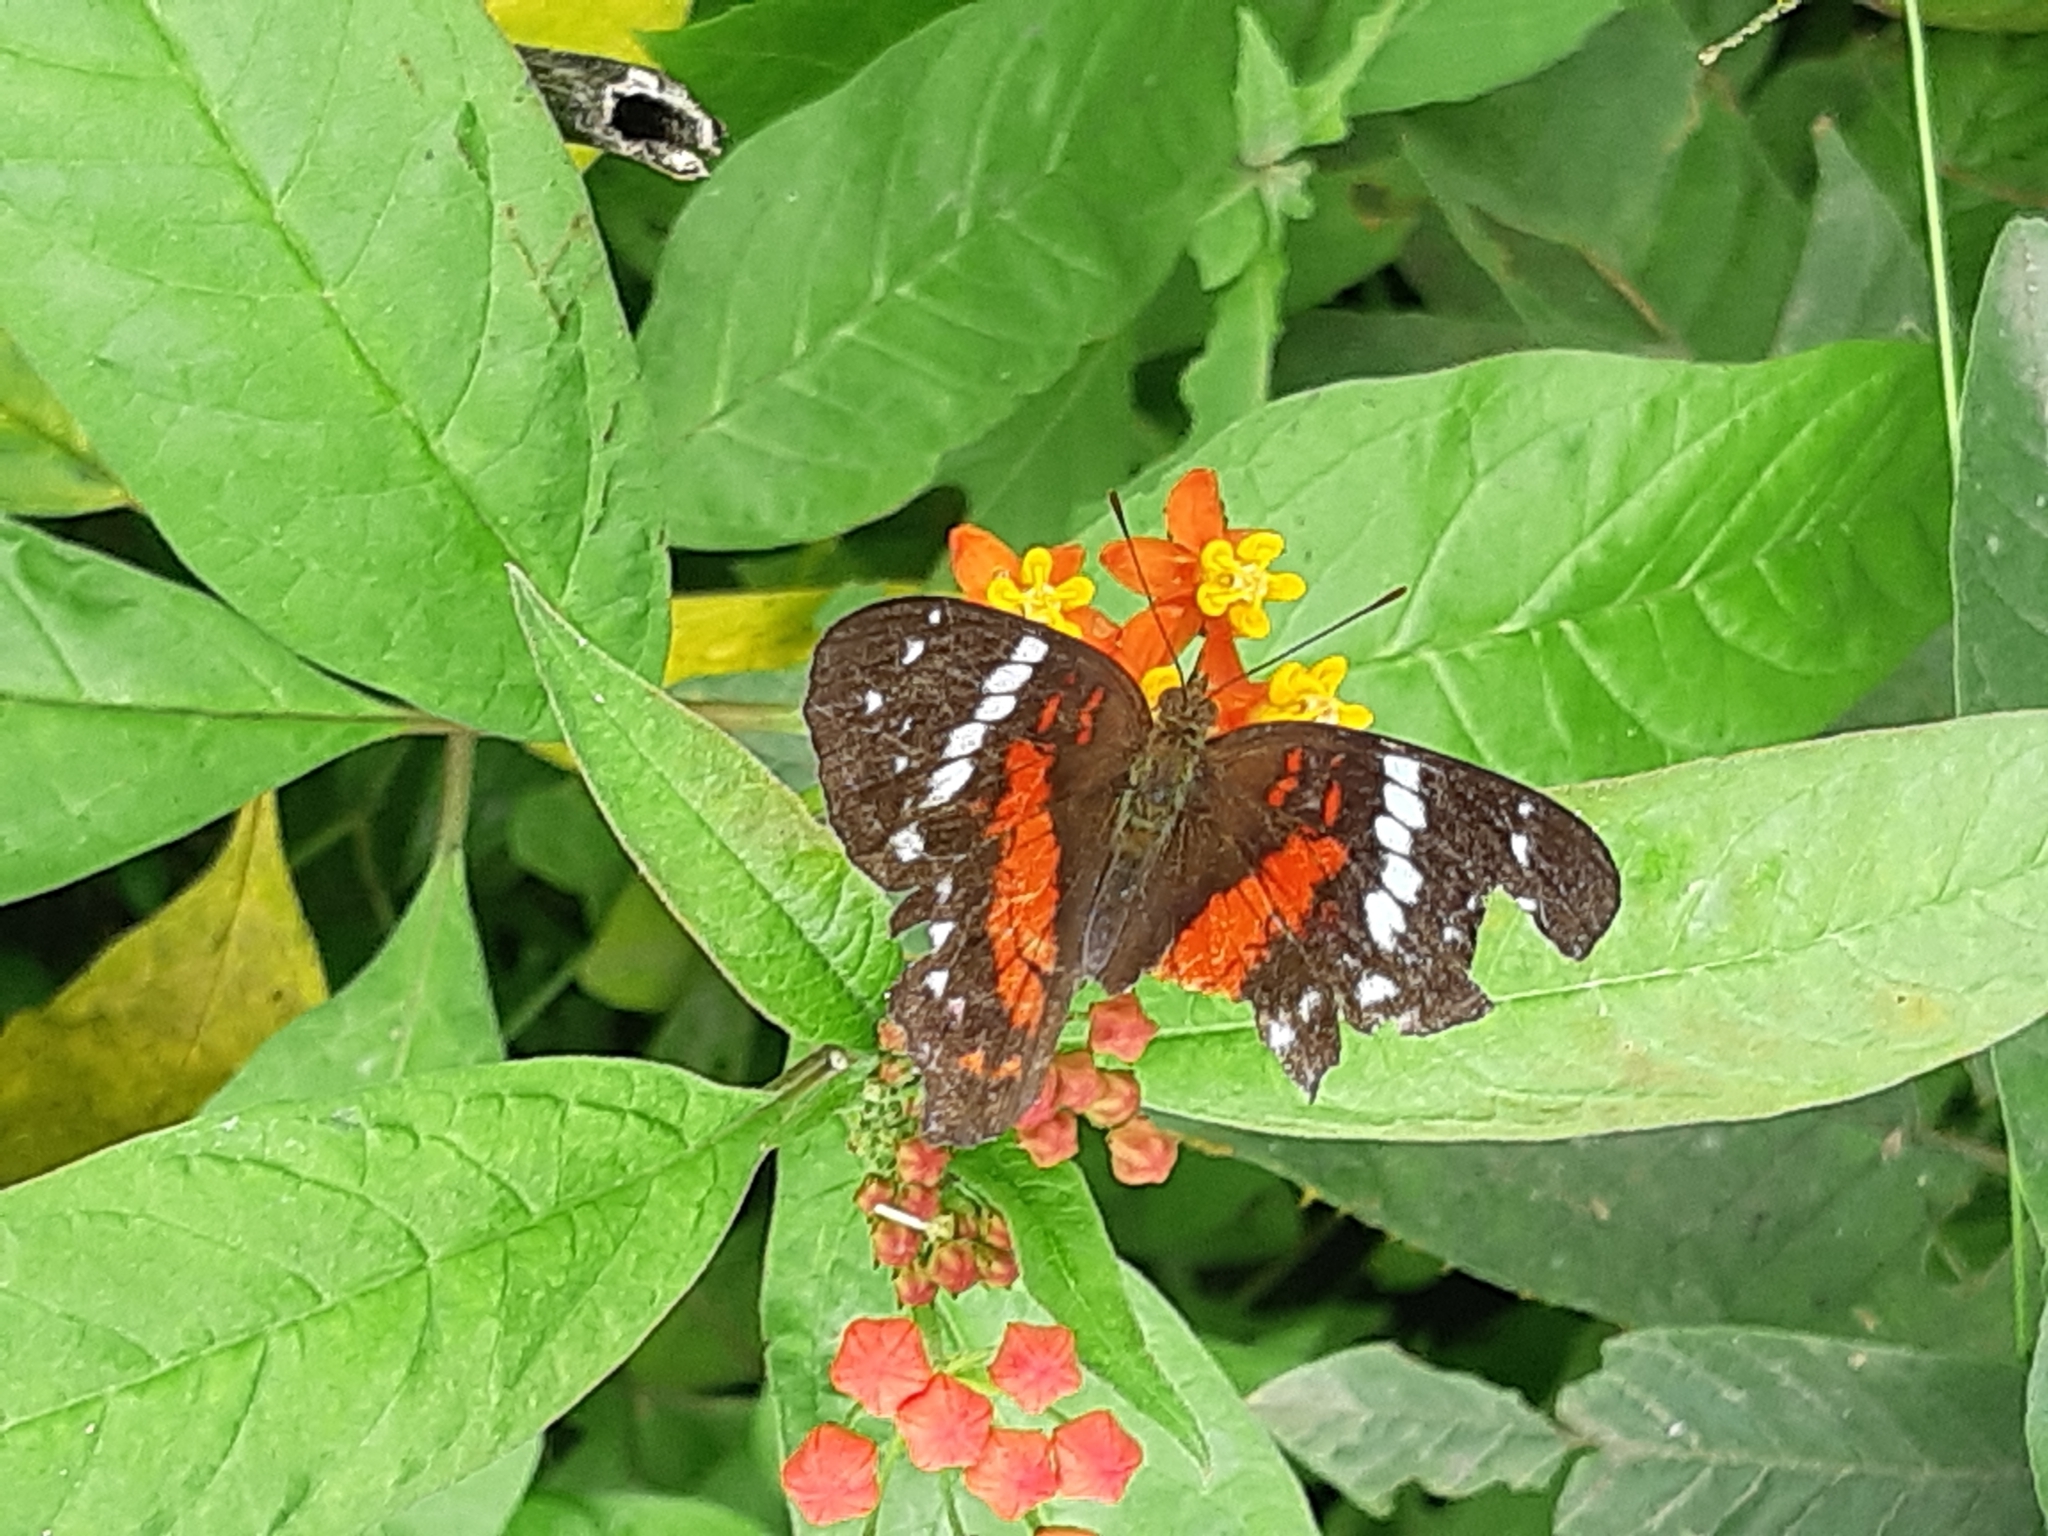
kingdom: Animalia
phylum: Arthropoda
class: Insecta
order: Lepidoptera
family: Nymphalidae
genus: Anartia
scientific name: Anartia amathea
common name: Red peacock
